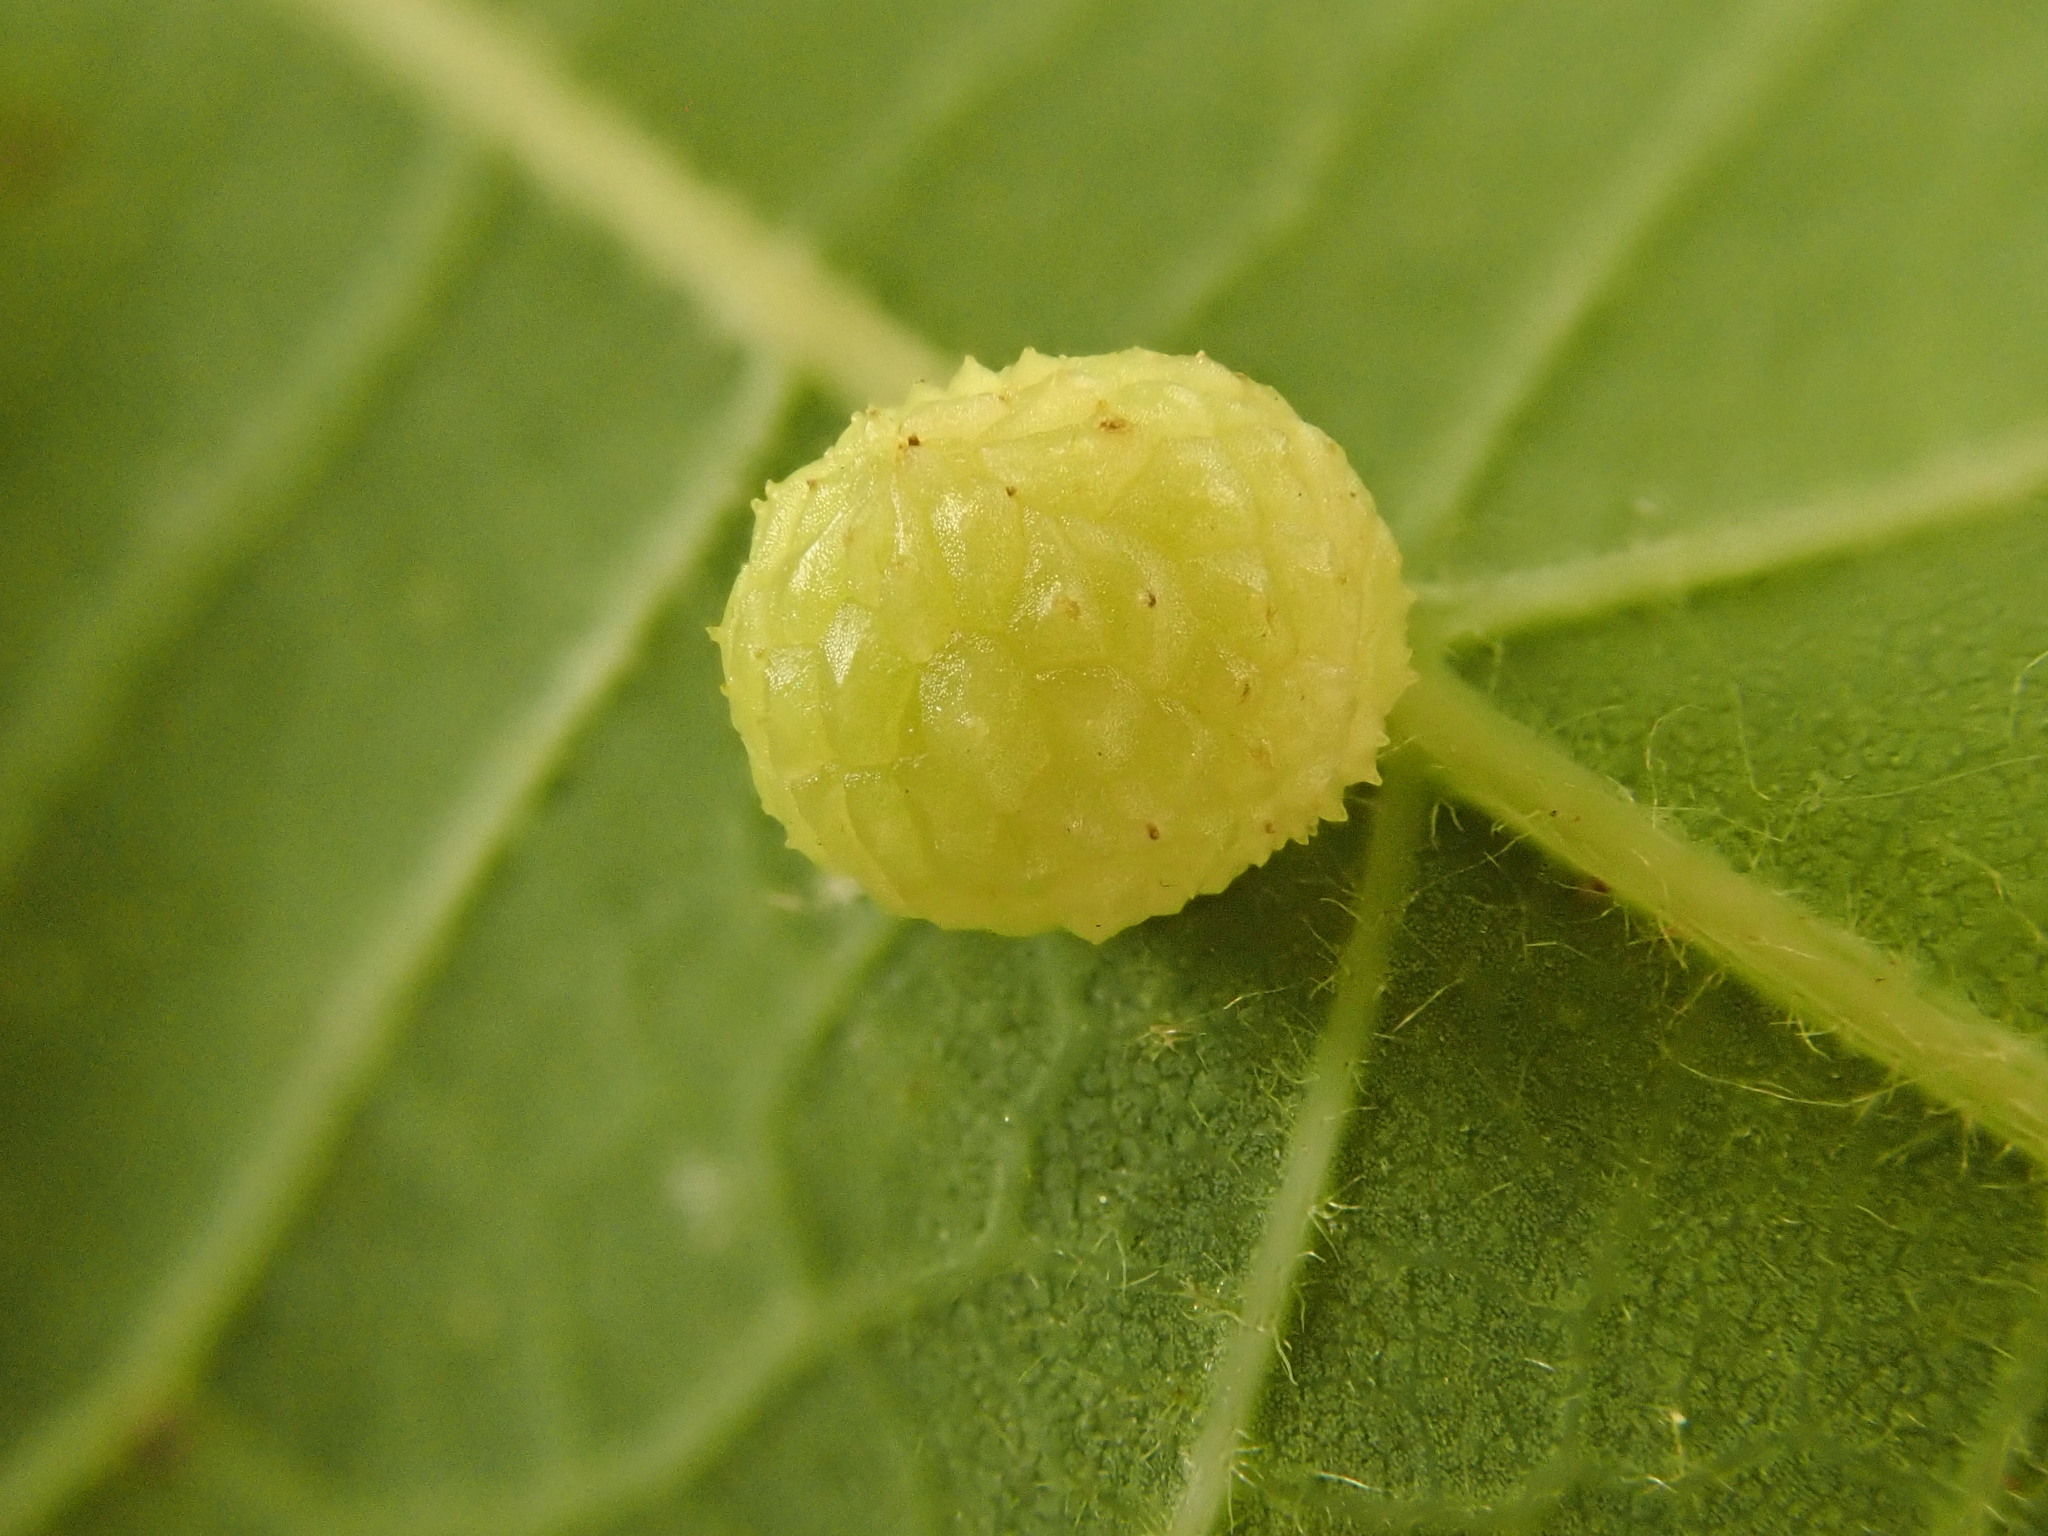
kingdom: Animalia
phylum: Arthropoda
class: Insecta
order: Hymenoptera
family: Cynipidae
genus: Acraspis
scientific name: Acraspis quercushirta
